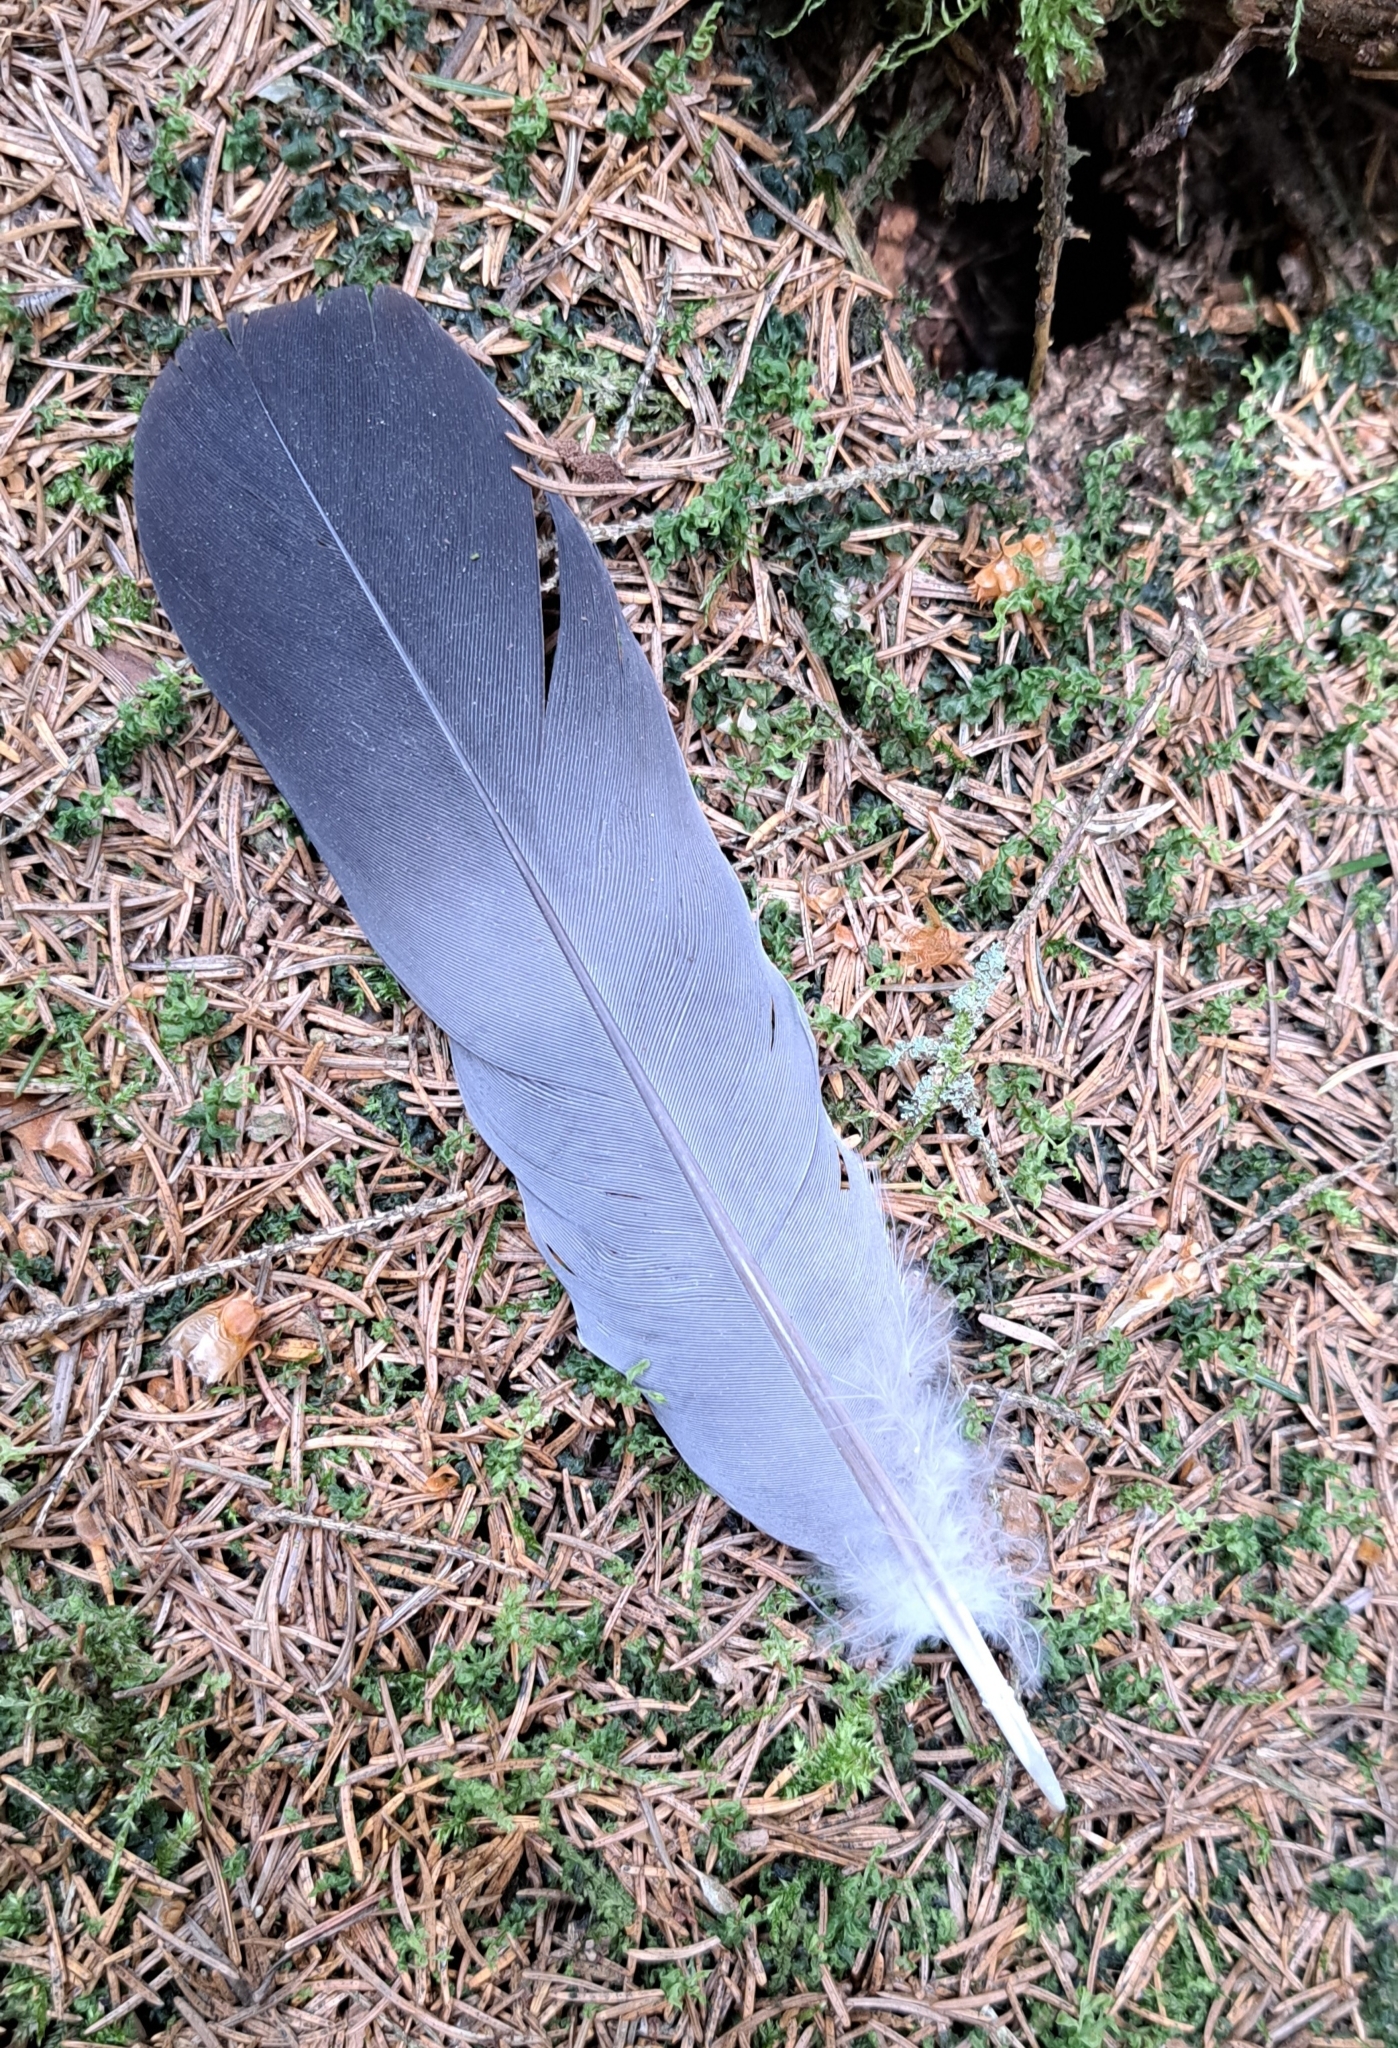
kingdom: Animalia
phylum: Chordata
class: Aves
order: Columbiformes
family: Columbidae
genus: Columba
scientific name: Columba palumbus
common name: Common wood pigeon
